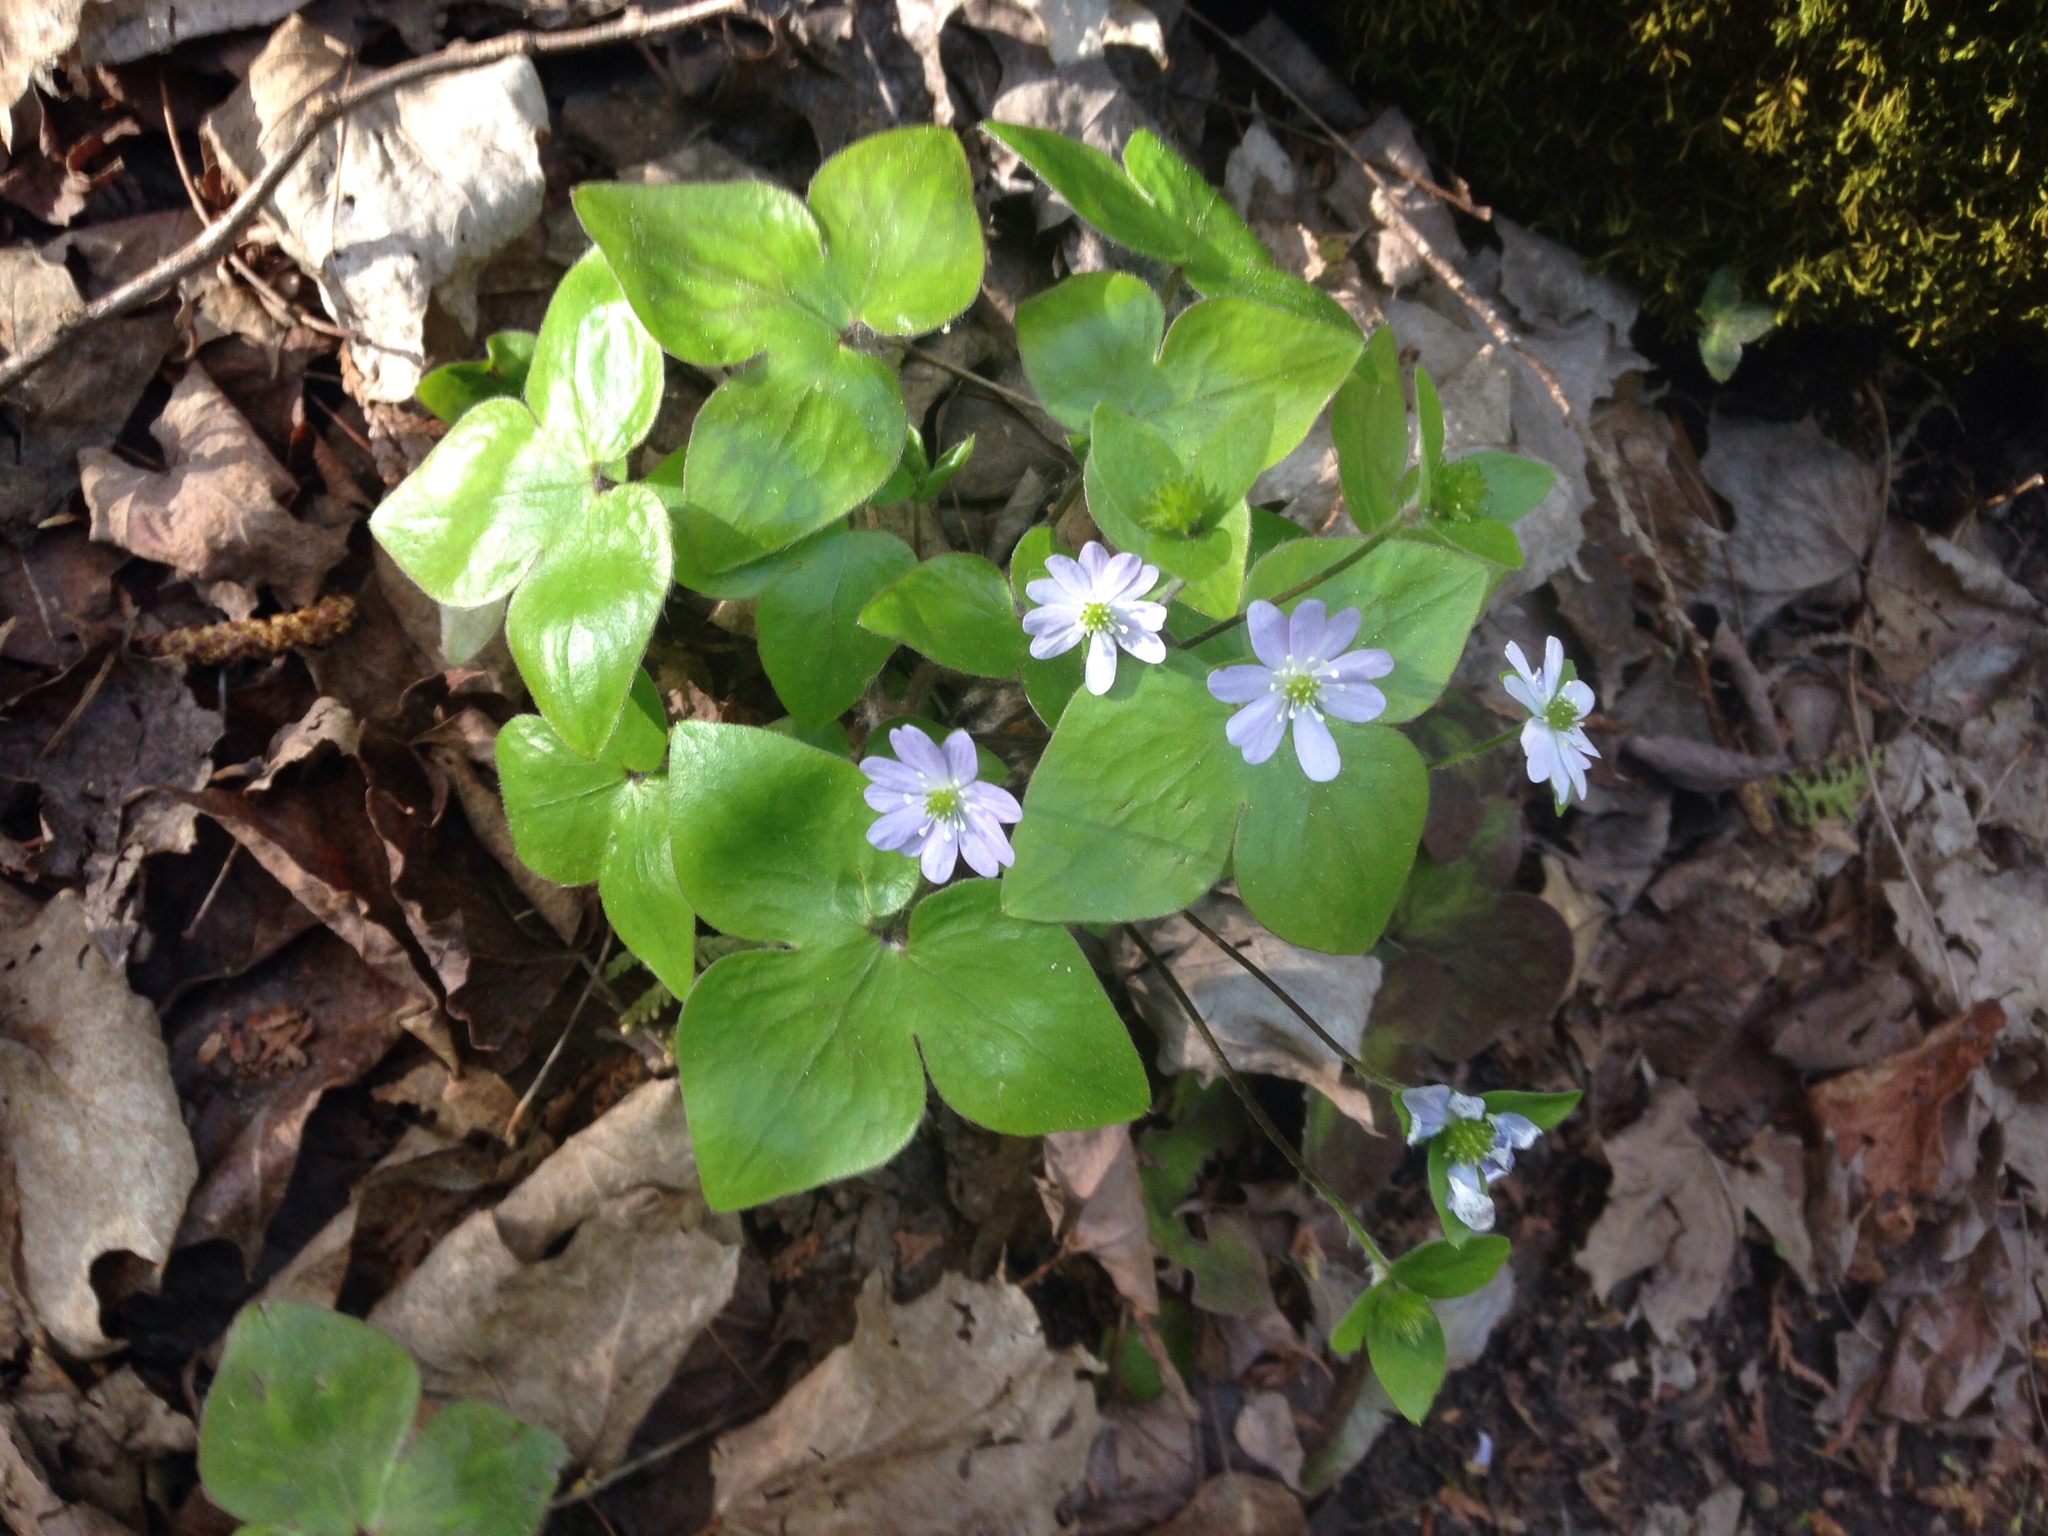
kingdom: Plantae
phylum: Tracheophyta
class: Magnoliopsida
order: Ranunculales
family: Ranunculaceae
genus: Hepatica
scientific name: Hepatica acutiloba
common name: Sharp-lobed hepatica
